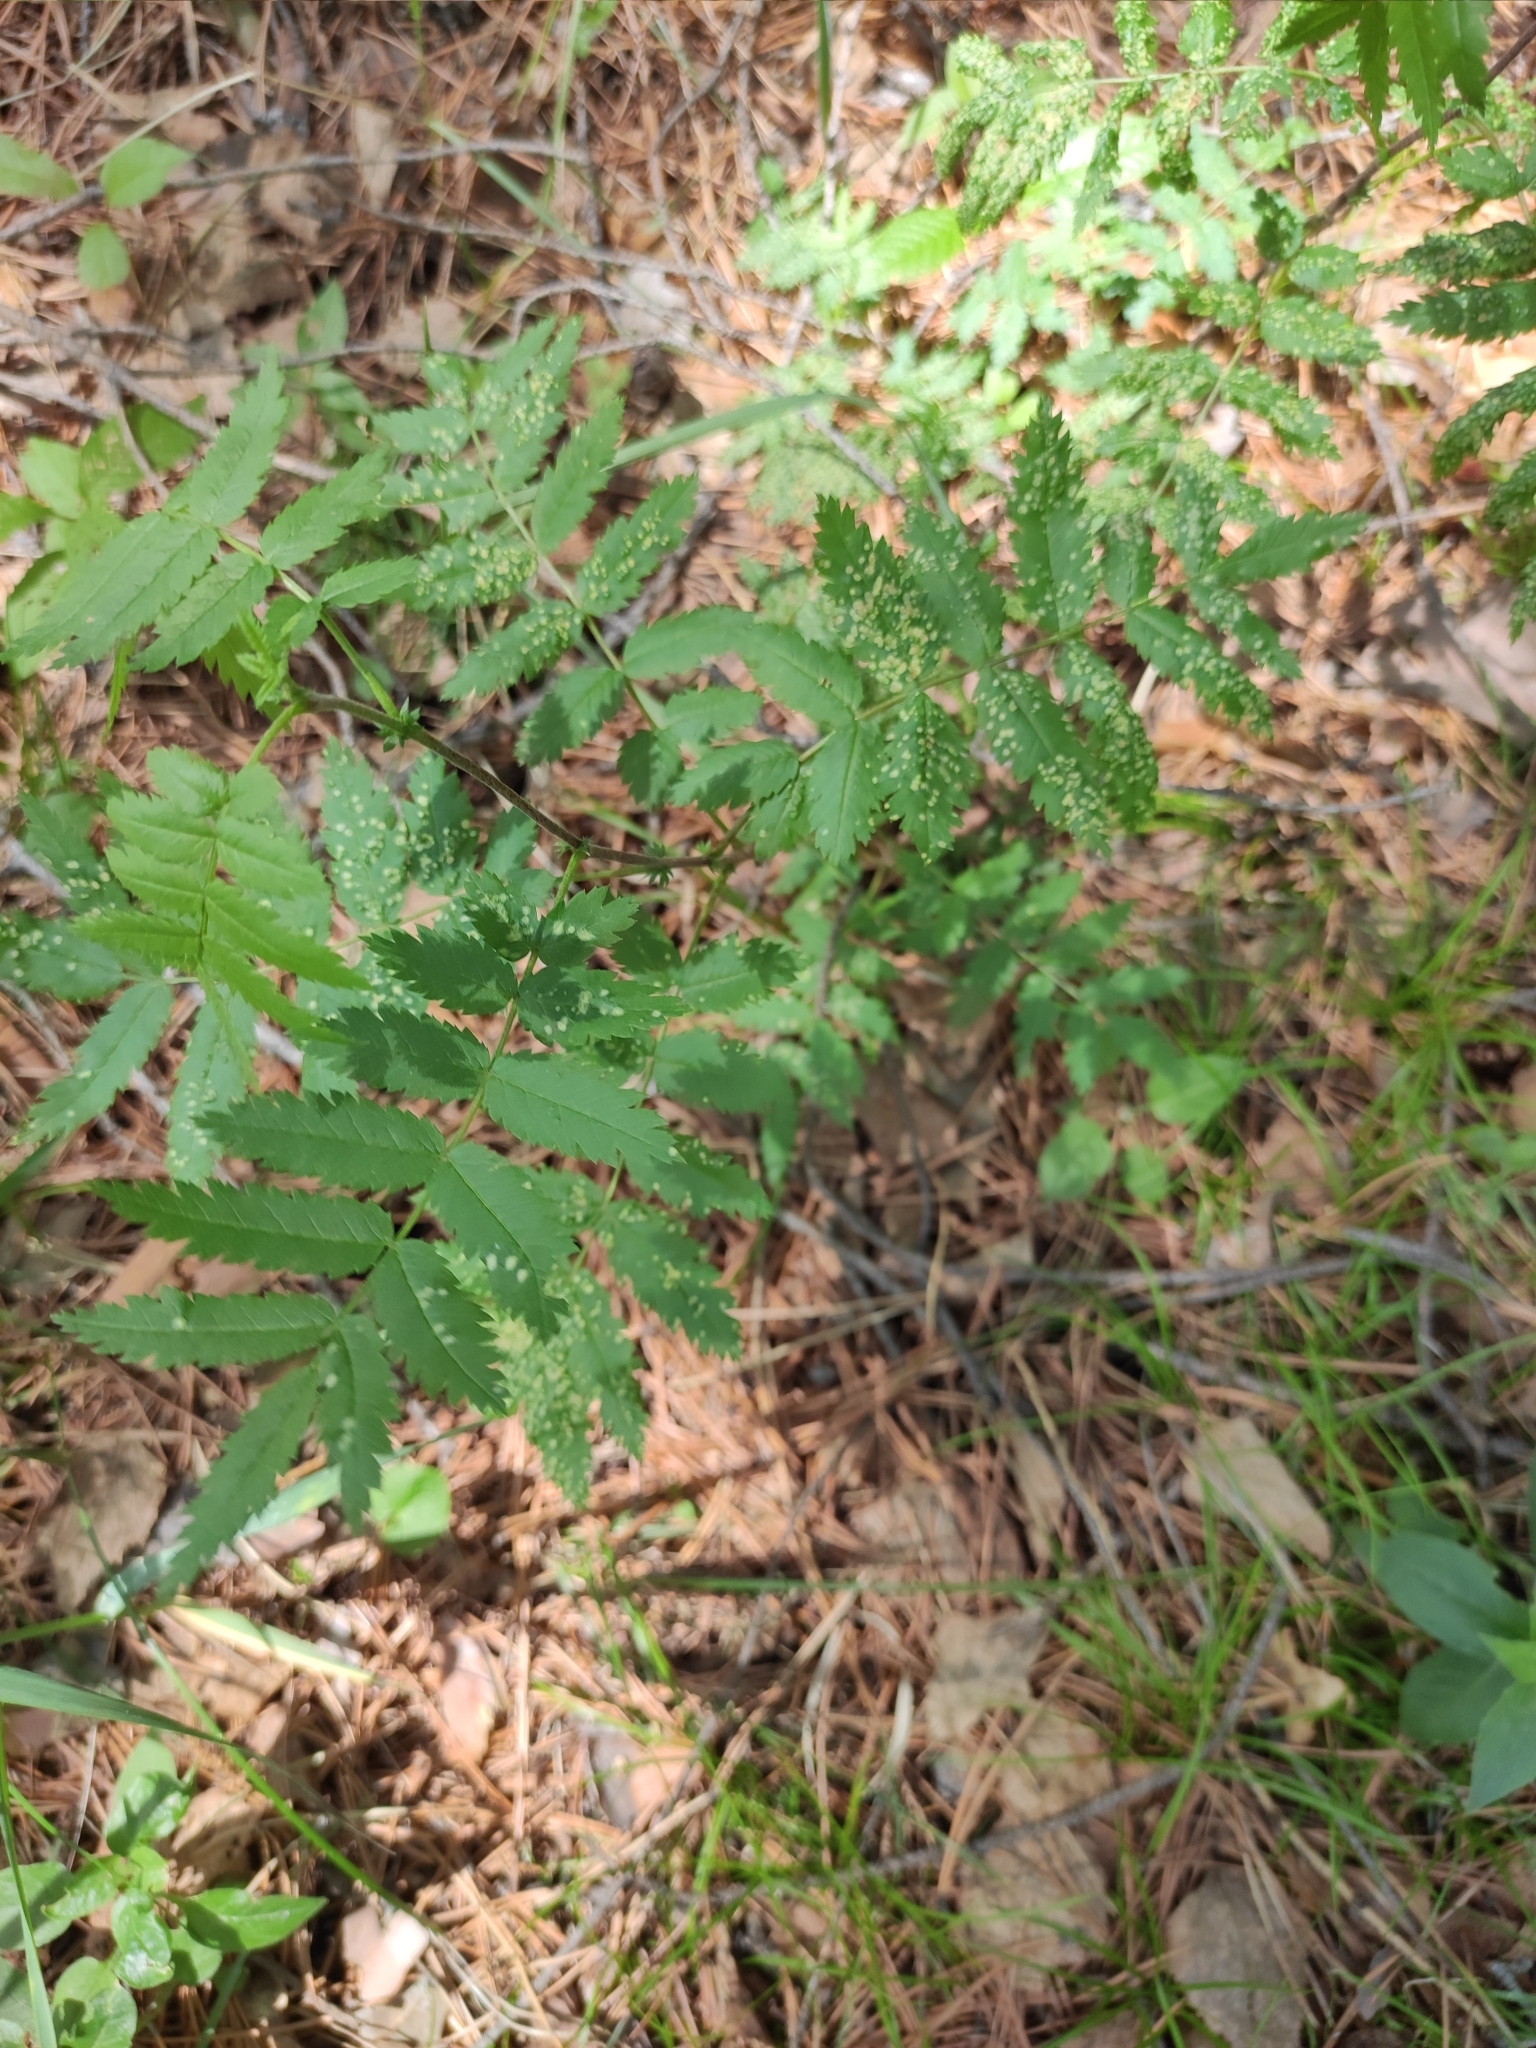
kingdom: Plantae
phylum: Tracheophyta
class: Magnoliopsida
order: Rosales
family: Rosaceae
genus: Sorbus
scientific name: Sorbus aucuparia
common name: Rowan
